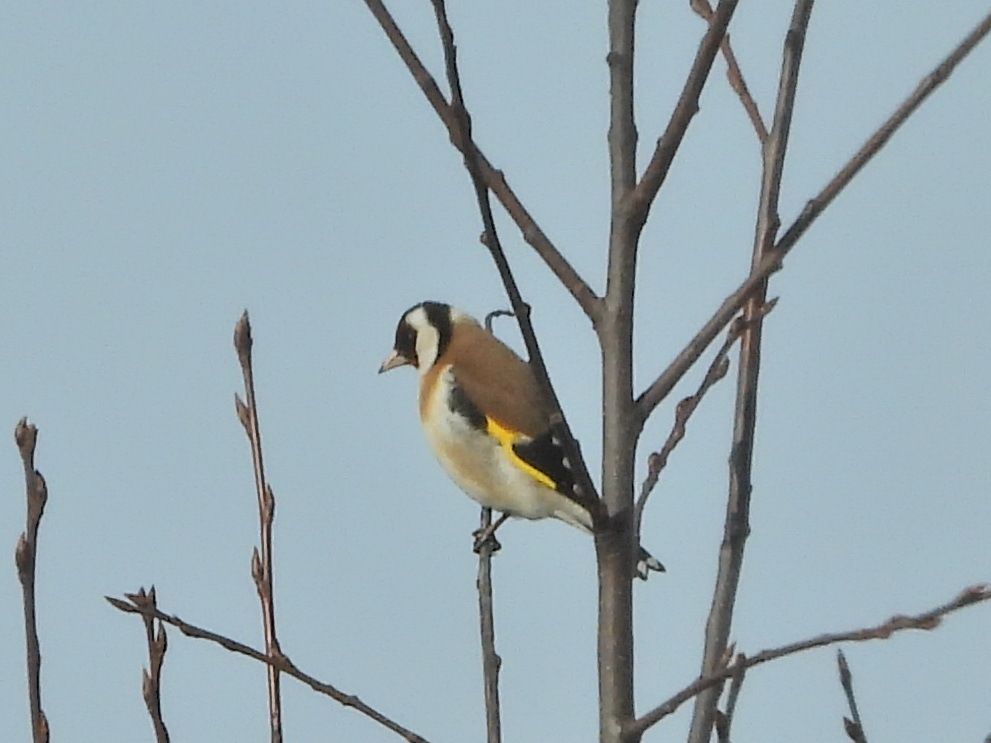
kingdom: Animalia
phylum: Chordata
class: Aves
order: Passeriformes
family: Fringillidae
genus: Carduelis
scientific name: Carduelis carduelis
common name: European goldfinch
